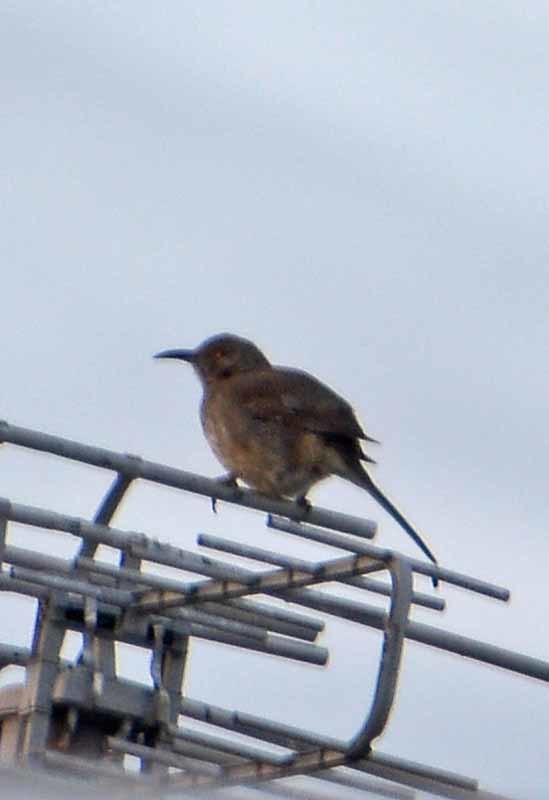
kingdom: Animalia
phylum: Chordata
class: Aves
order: Passeriformes
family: Mimidae
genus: Toxostoma
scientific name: Toxostoma curvirostre
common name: Curve-billed thrasher
